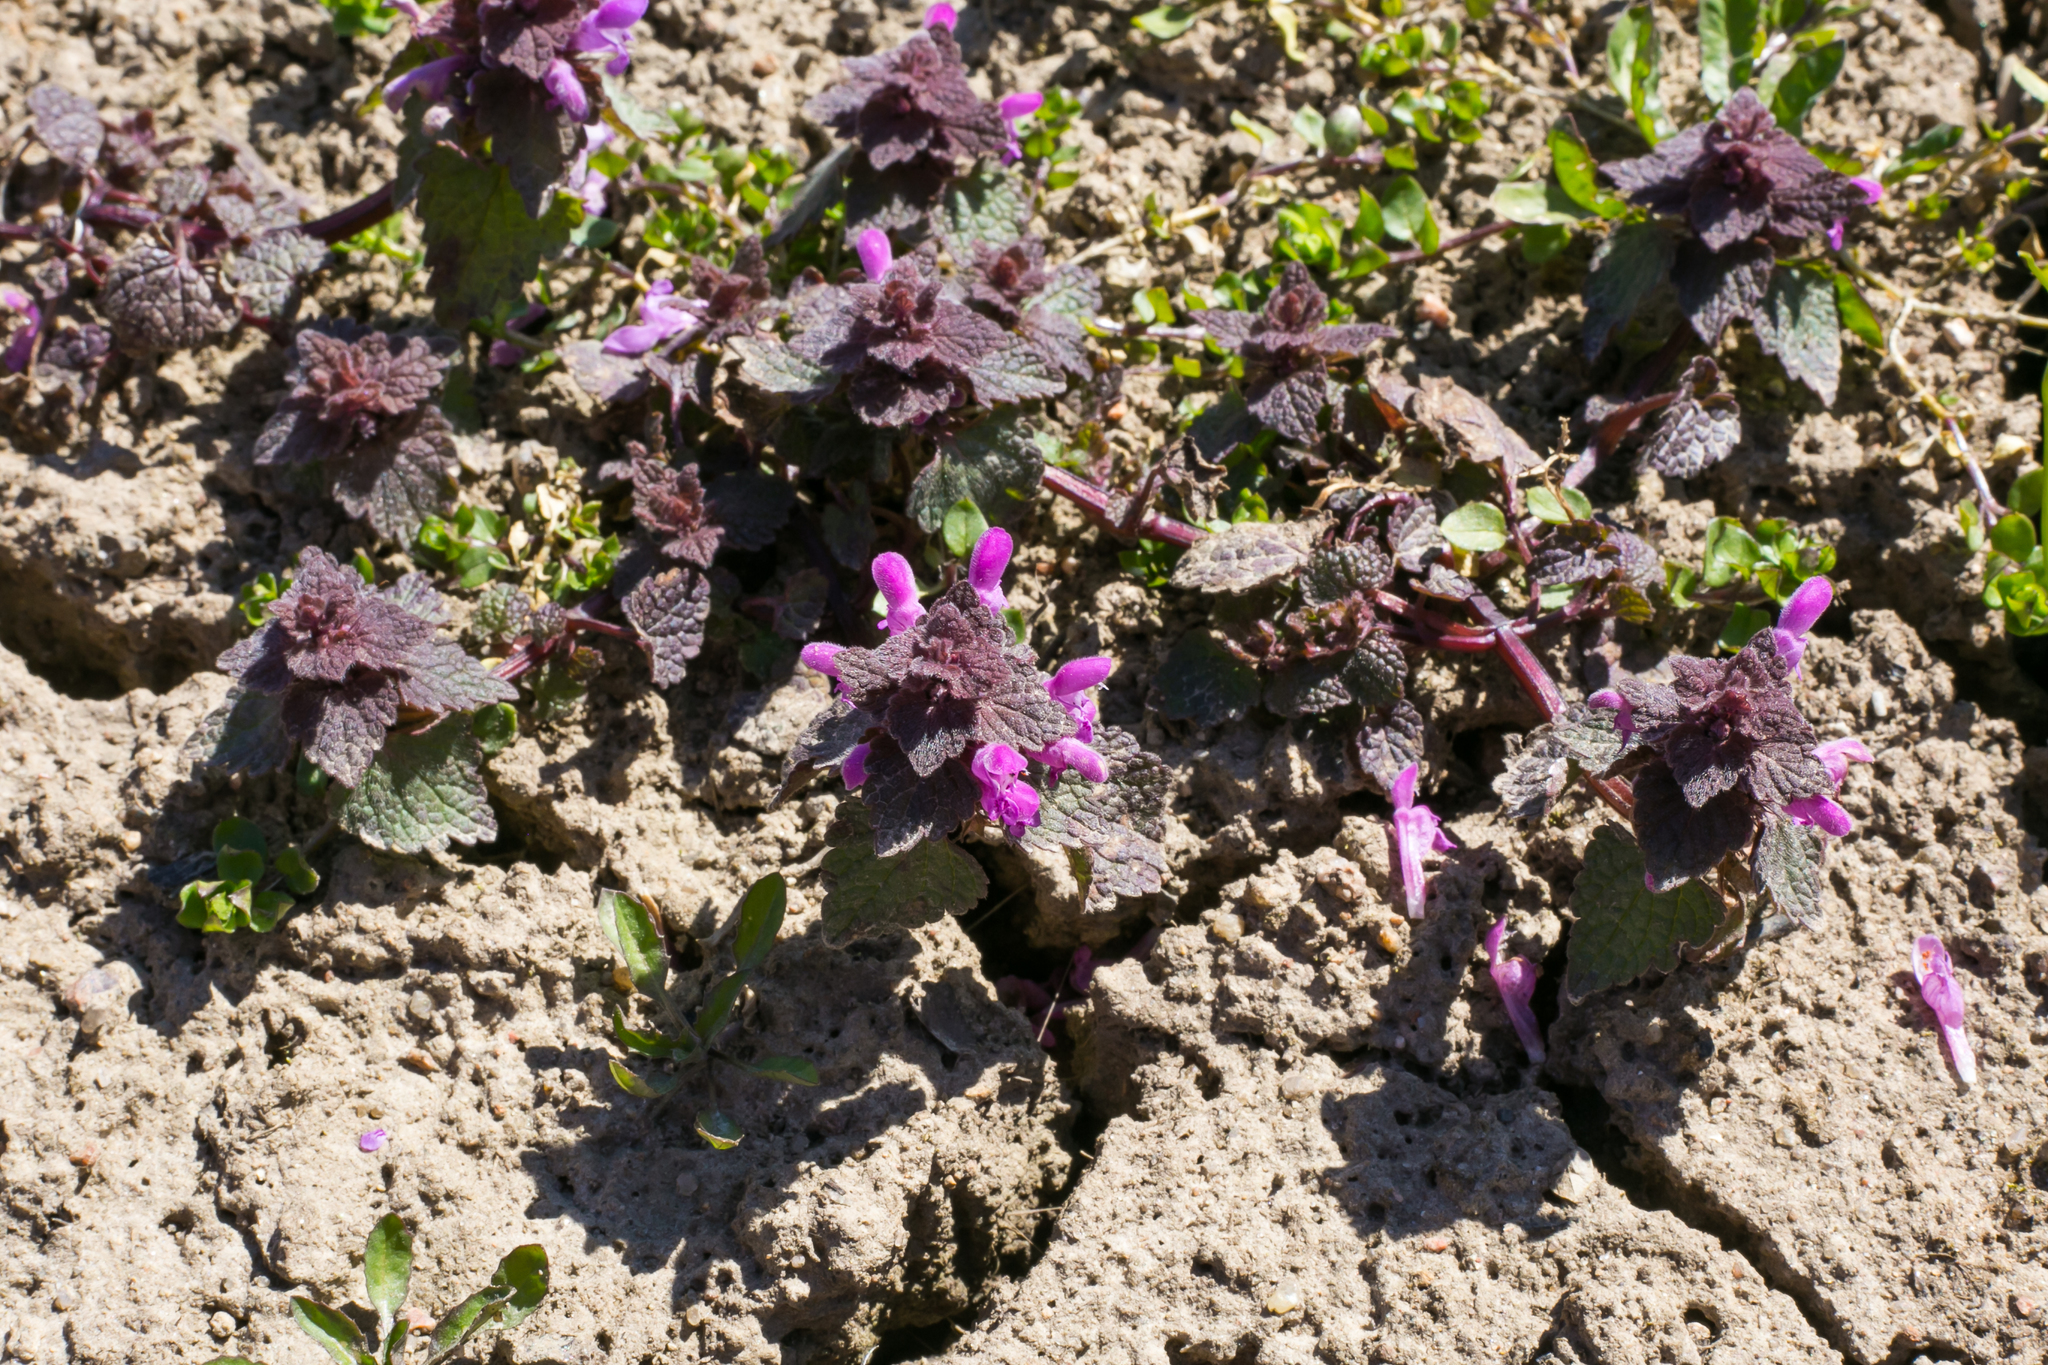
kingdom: Plantae
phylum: Tracheophyta
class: Magnoliopsida
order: Lamiales
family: Lamiaceae
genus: Lamium
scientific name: Lamium purpureum
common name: Red dead-nettle
